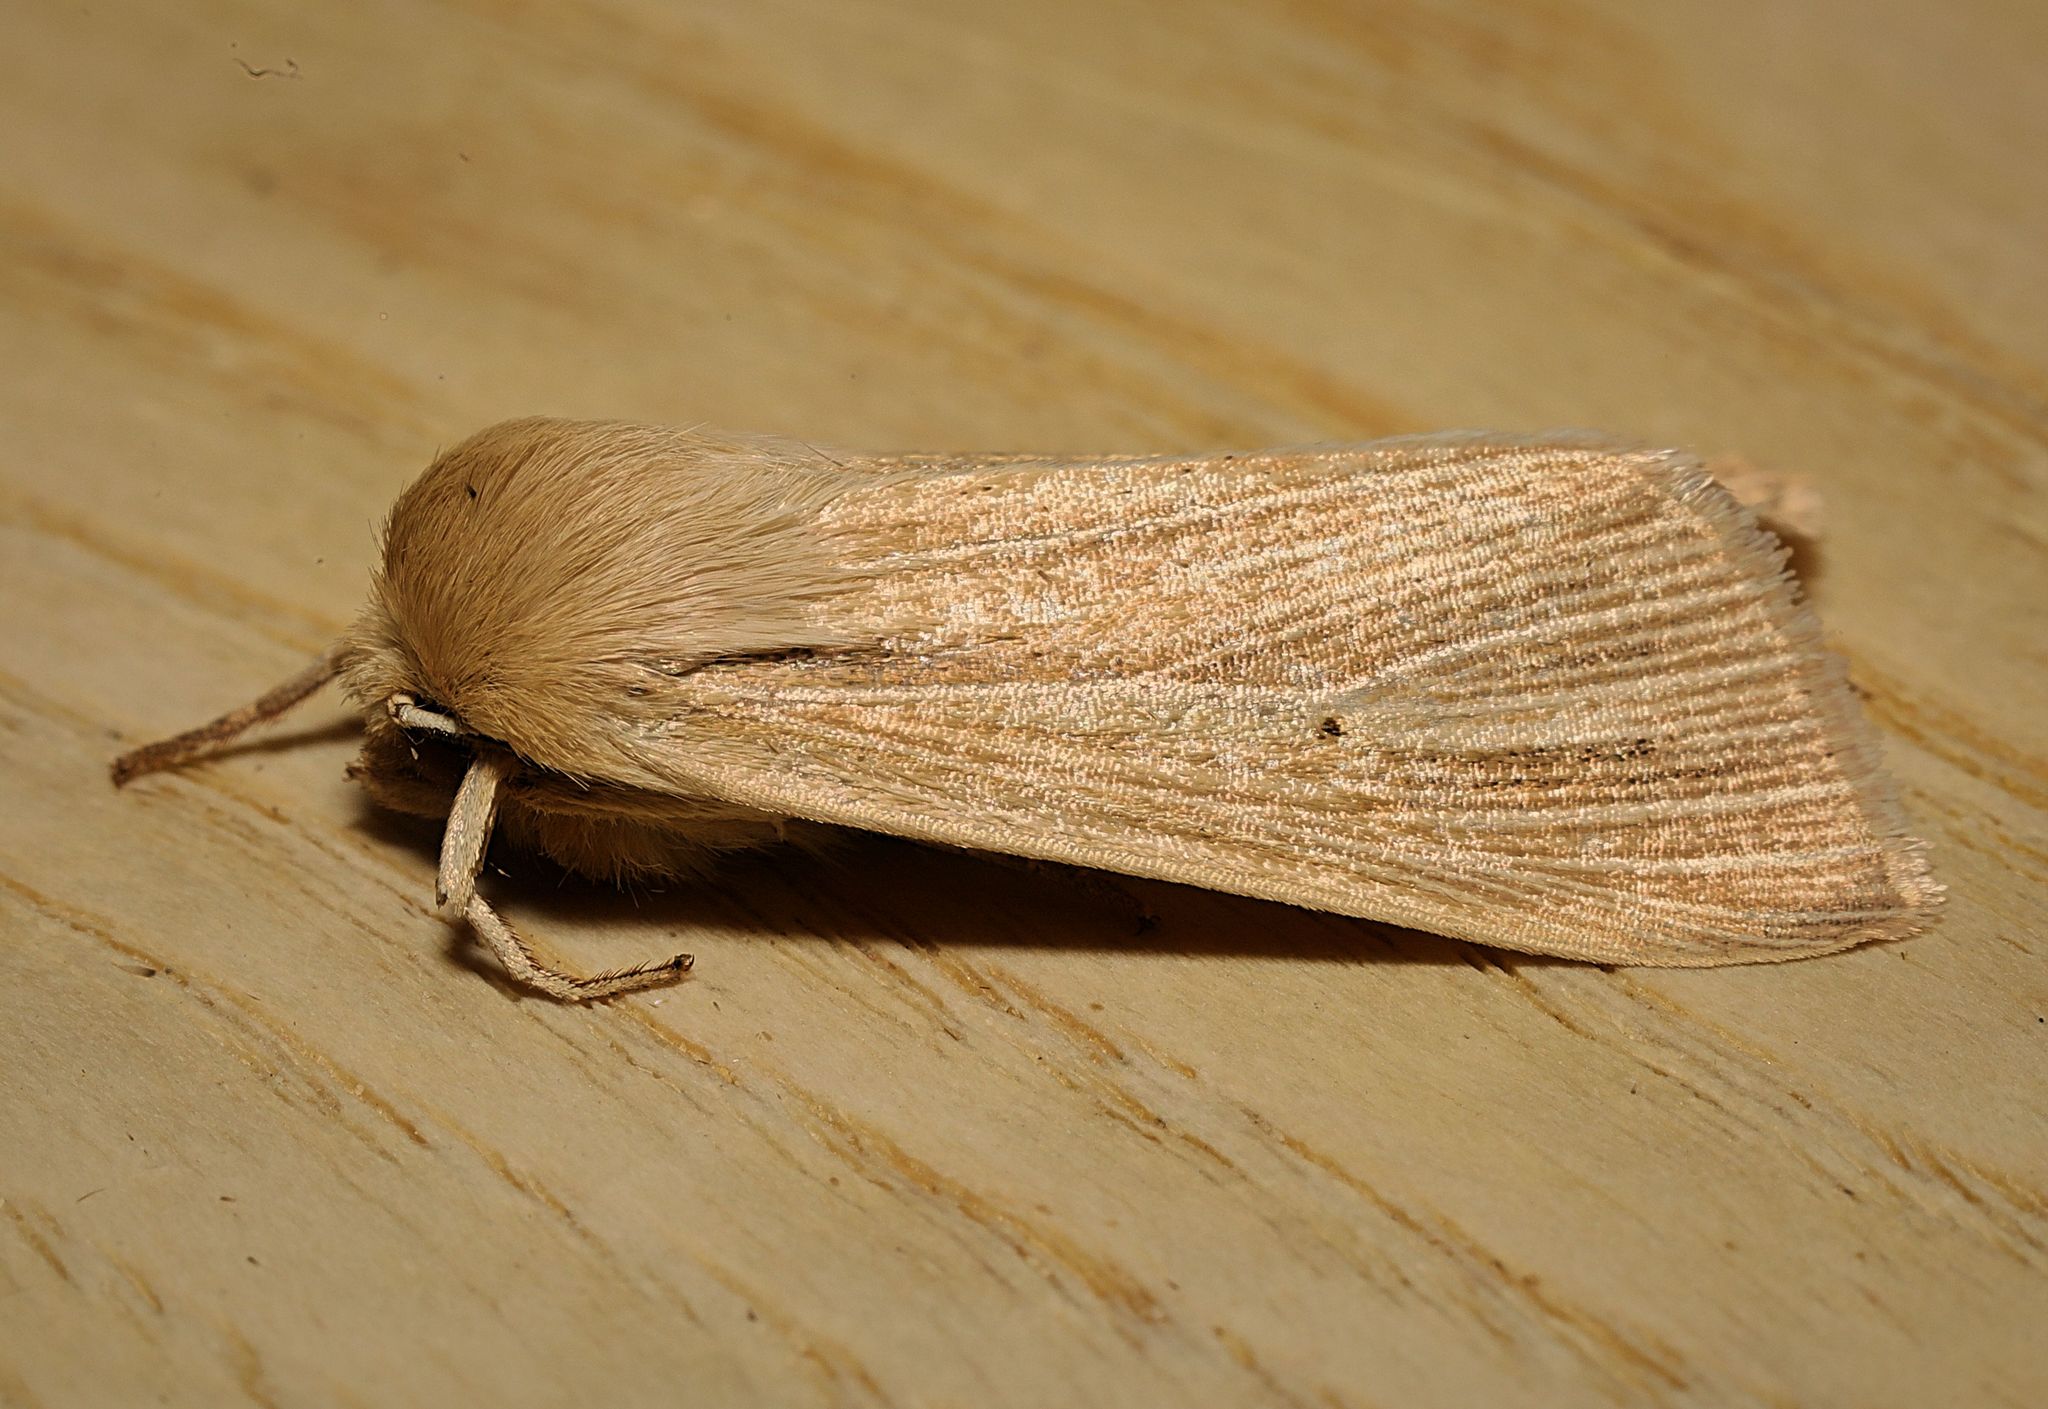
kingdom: Animalia
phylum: Arthropoda
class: Insecta
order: Lepidoptera
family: Noctuidae
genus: Mythimna
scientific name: Mythimna pallens
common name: Common wainscot
